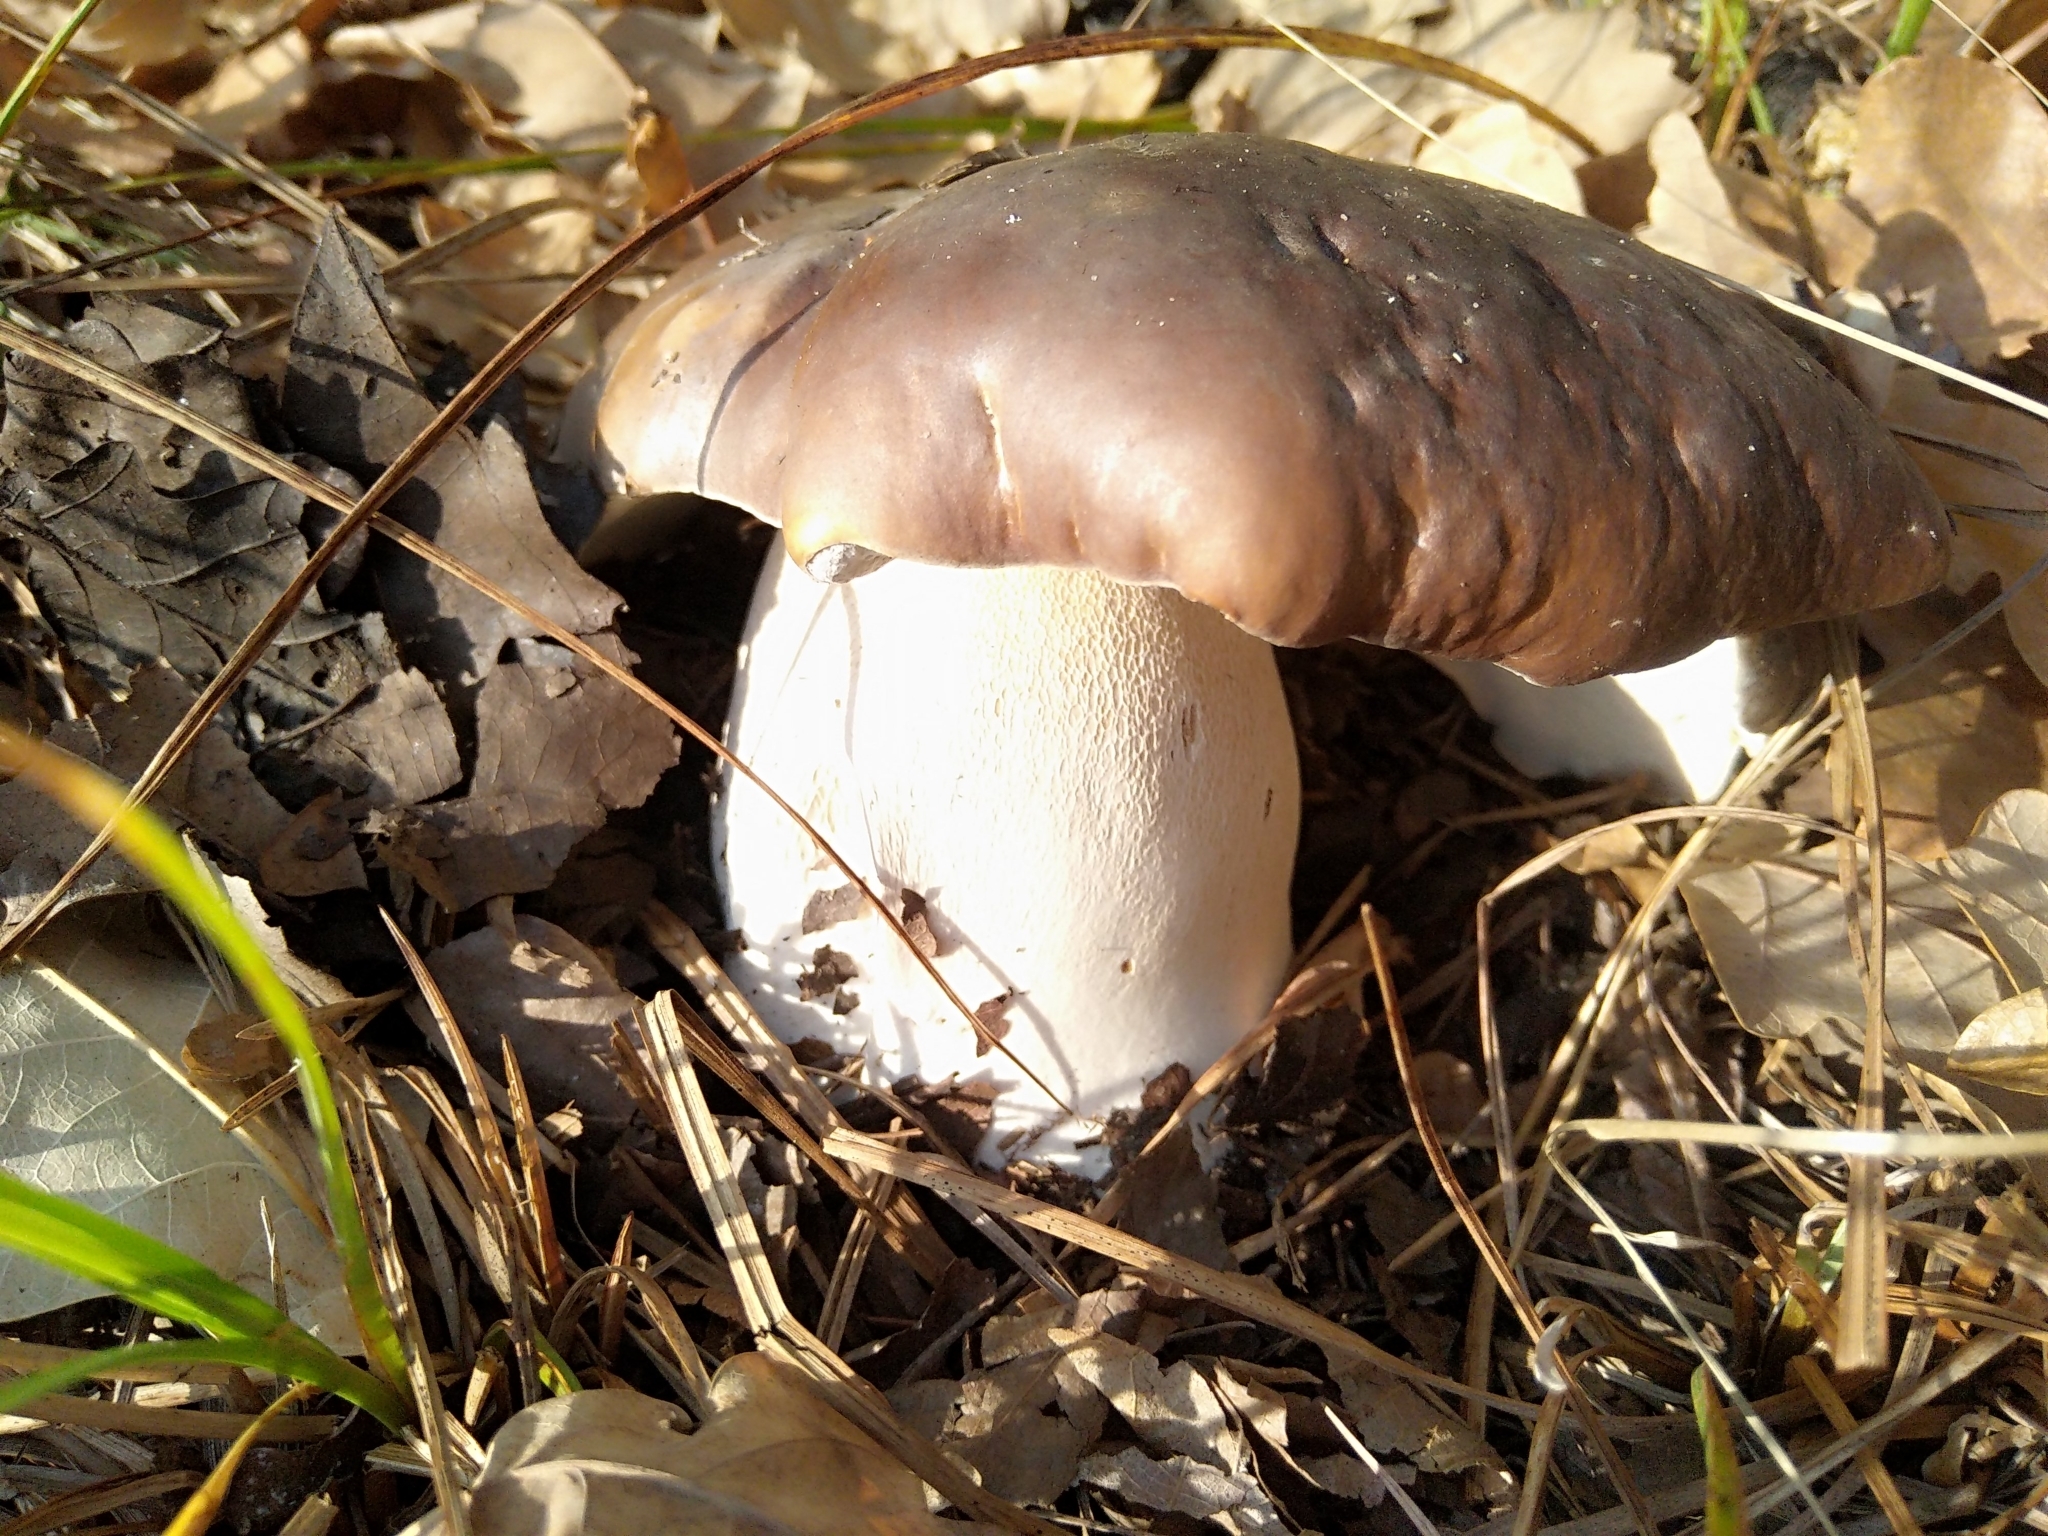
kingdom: Fungi
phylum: Basidiomycota
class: Agaricomycetes
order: Boletales
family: Boletaceae
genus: Boletus
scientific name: Boletus edulis
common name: Cep
